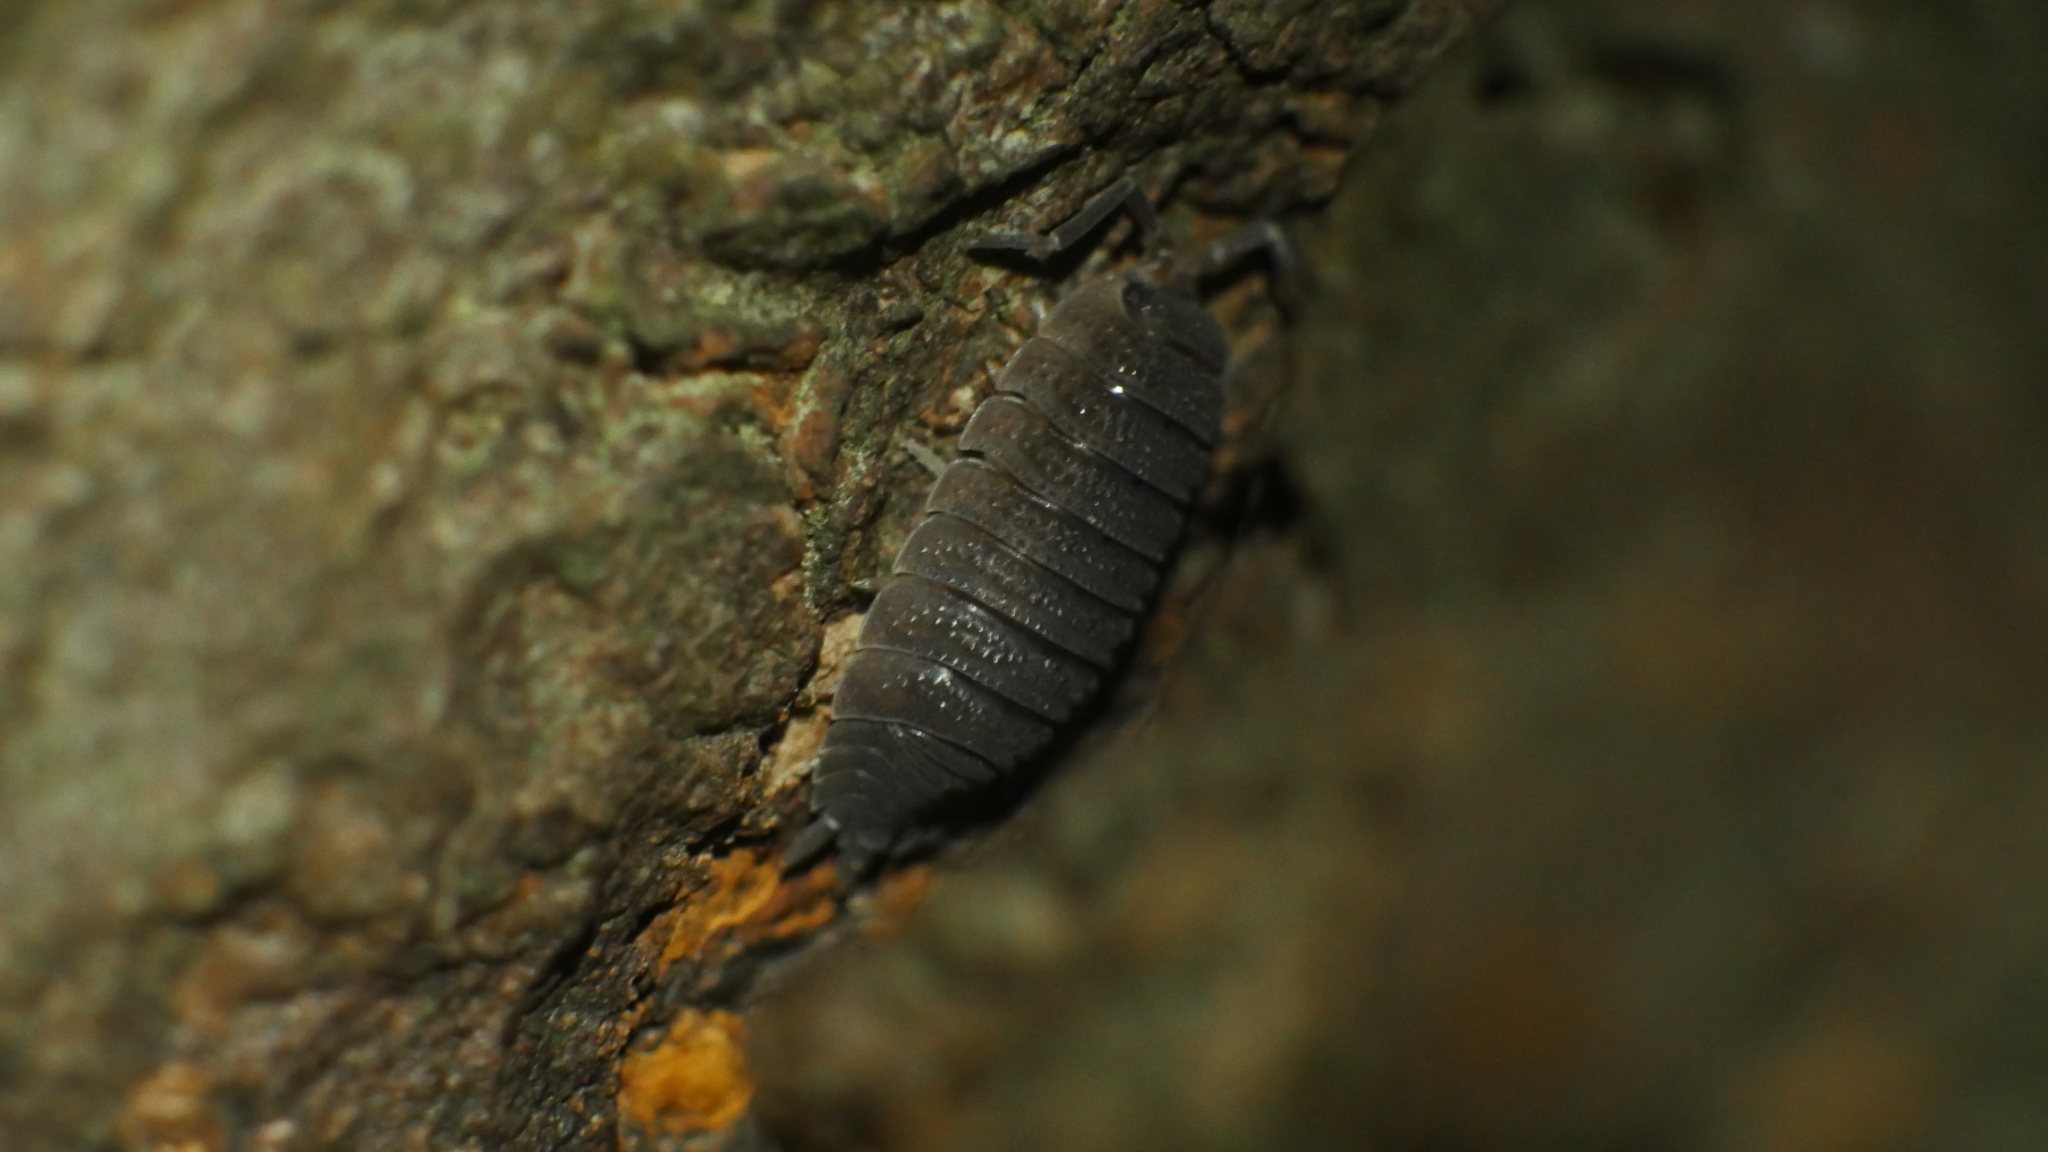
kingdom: Animalia
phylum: Arthropoda
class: Malacostraca
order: Isopoda
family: Porcellionidae
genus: Porcellio
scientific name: Porcellio scaber
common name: Common rough woodlouse
